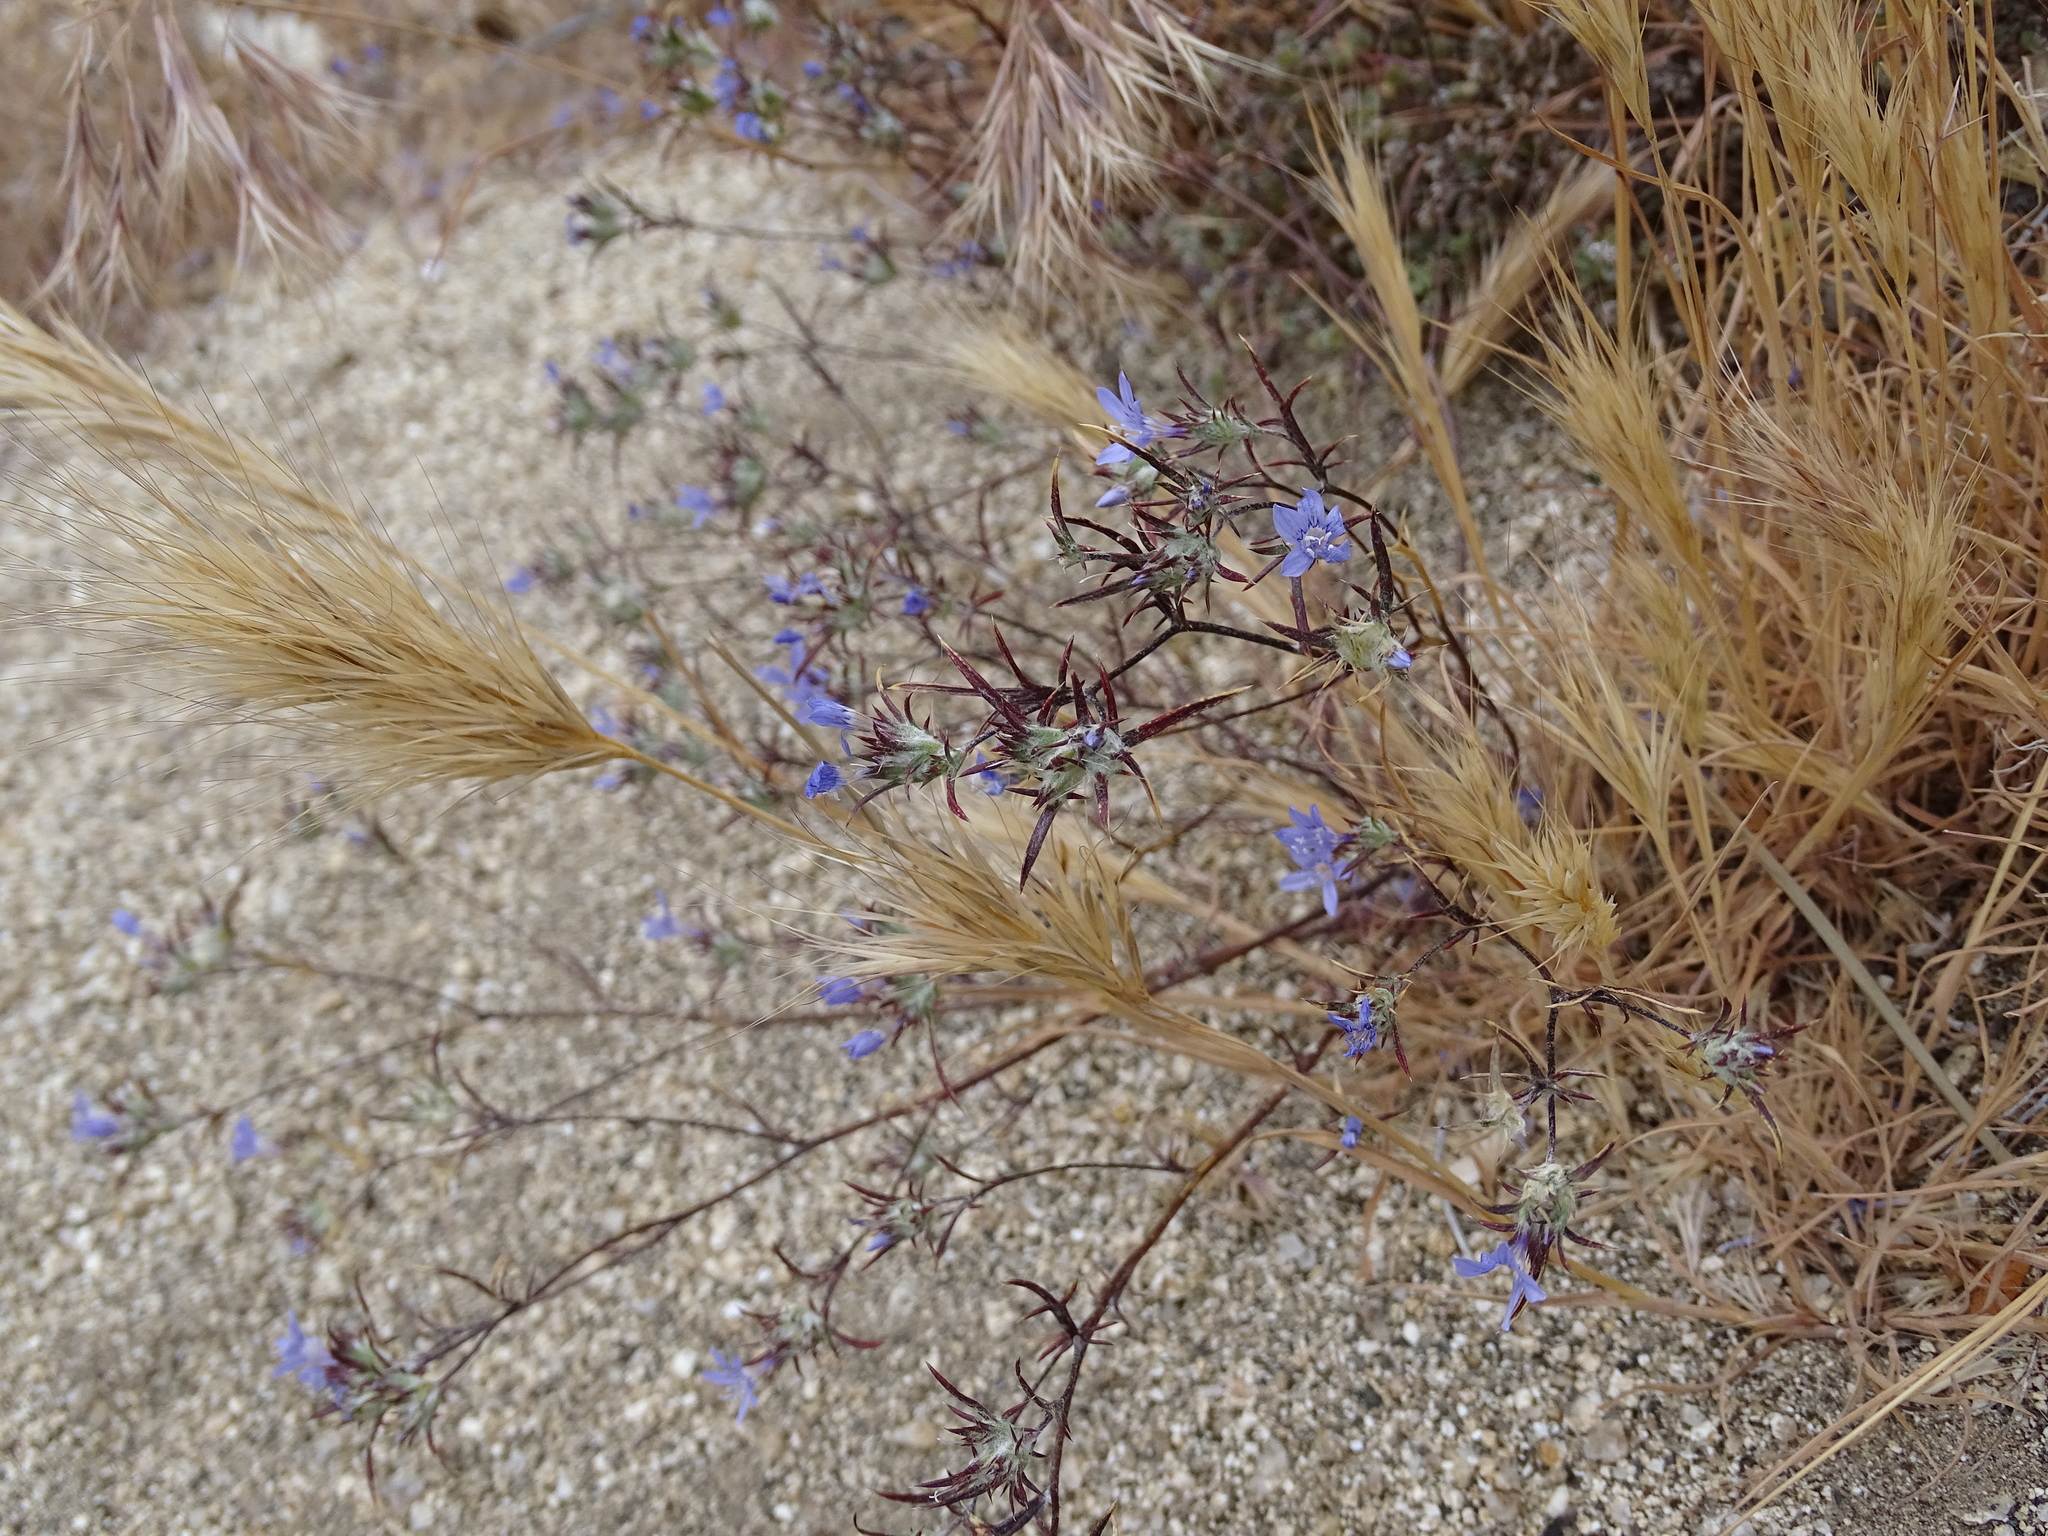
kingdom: Plantae
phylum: Tracheophyta
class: Magnoliopsida
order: Ericales
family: Polemoniaceae
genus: Eriastrum
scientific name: Eriastrum eremicum
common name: Desert eriastrum
